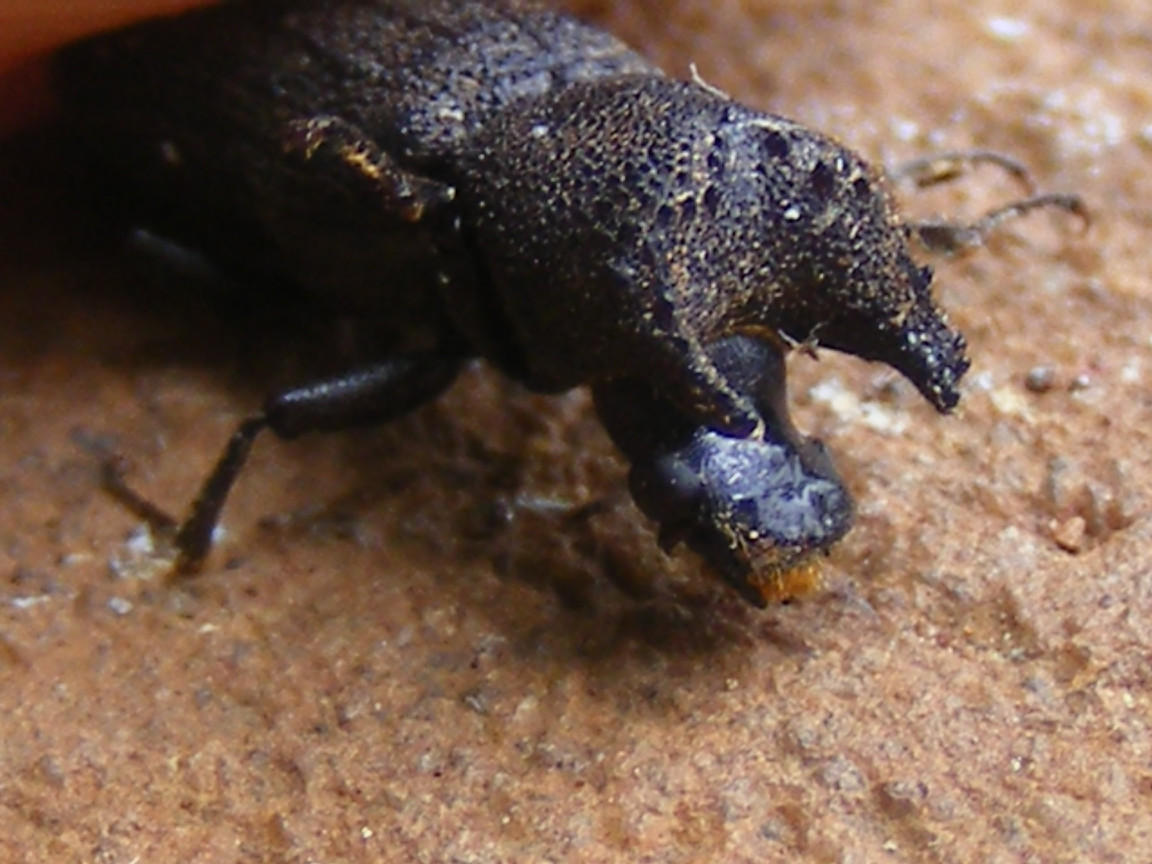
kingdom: Animalia
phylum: Arthropoda
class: Insecta
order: Coleoptera
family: Bostrichidae
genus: Bostrychoplites
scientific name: Bostrychoplites cornutus
